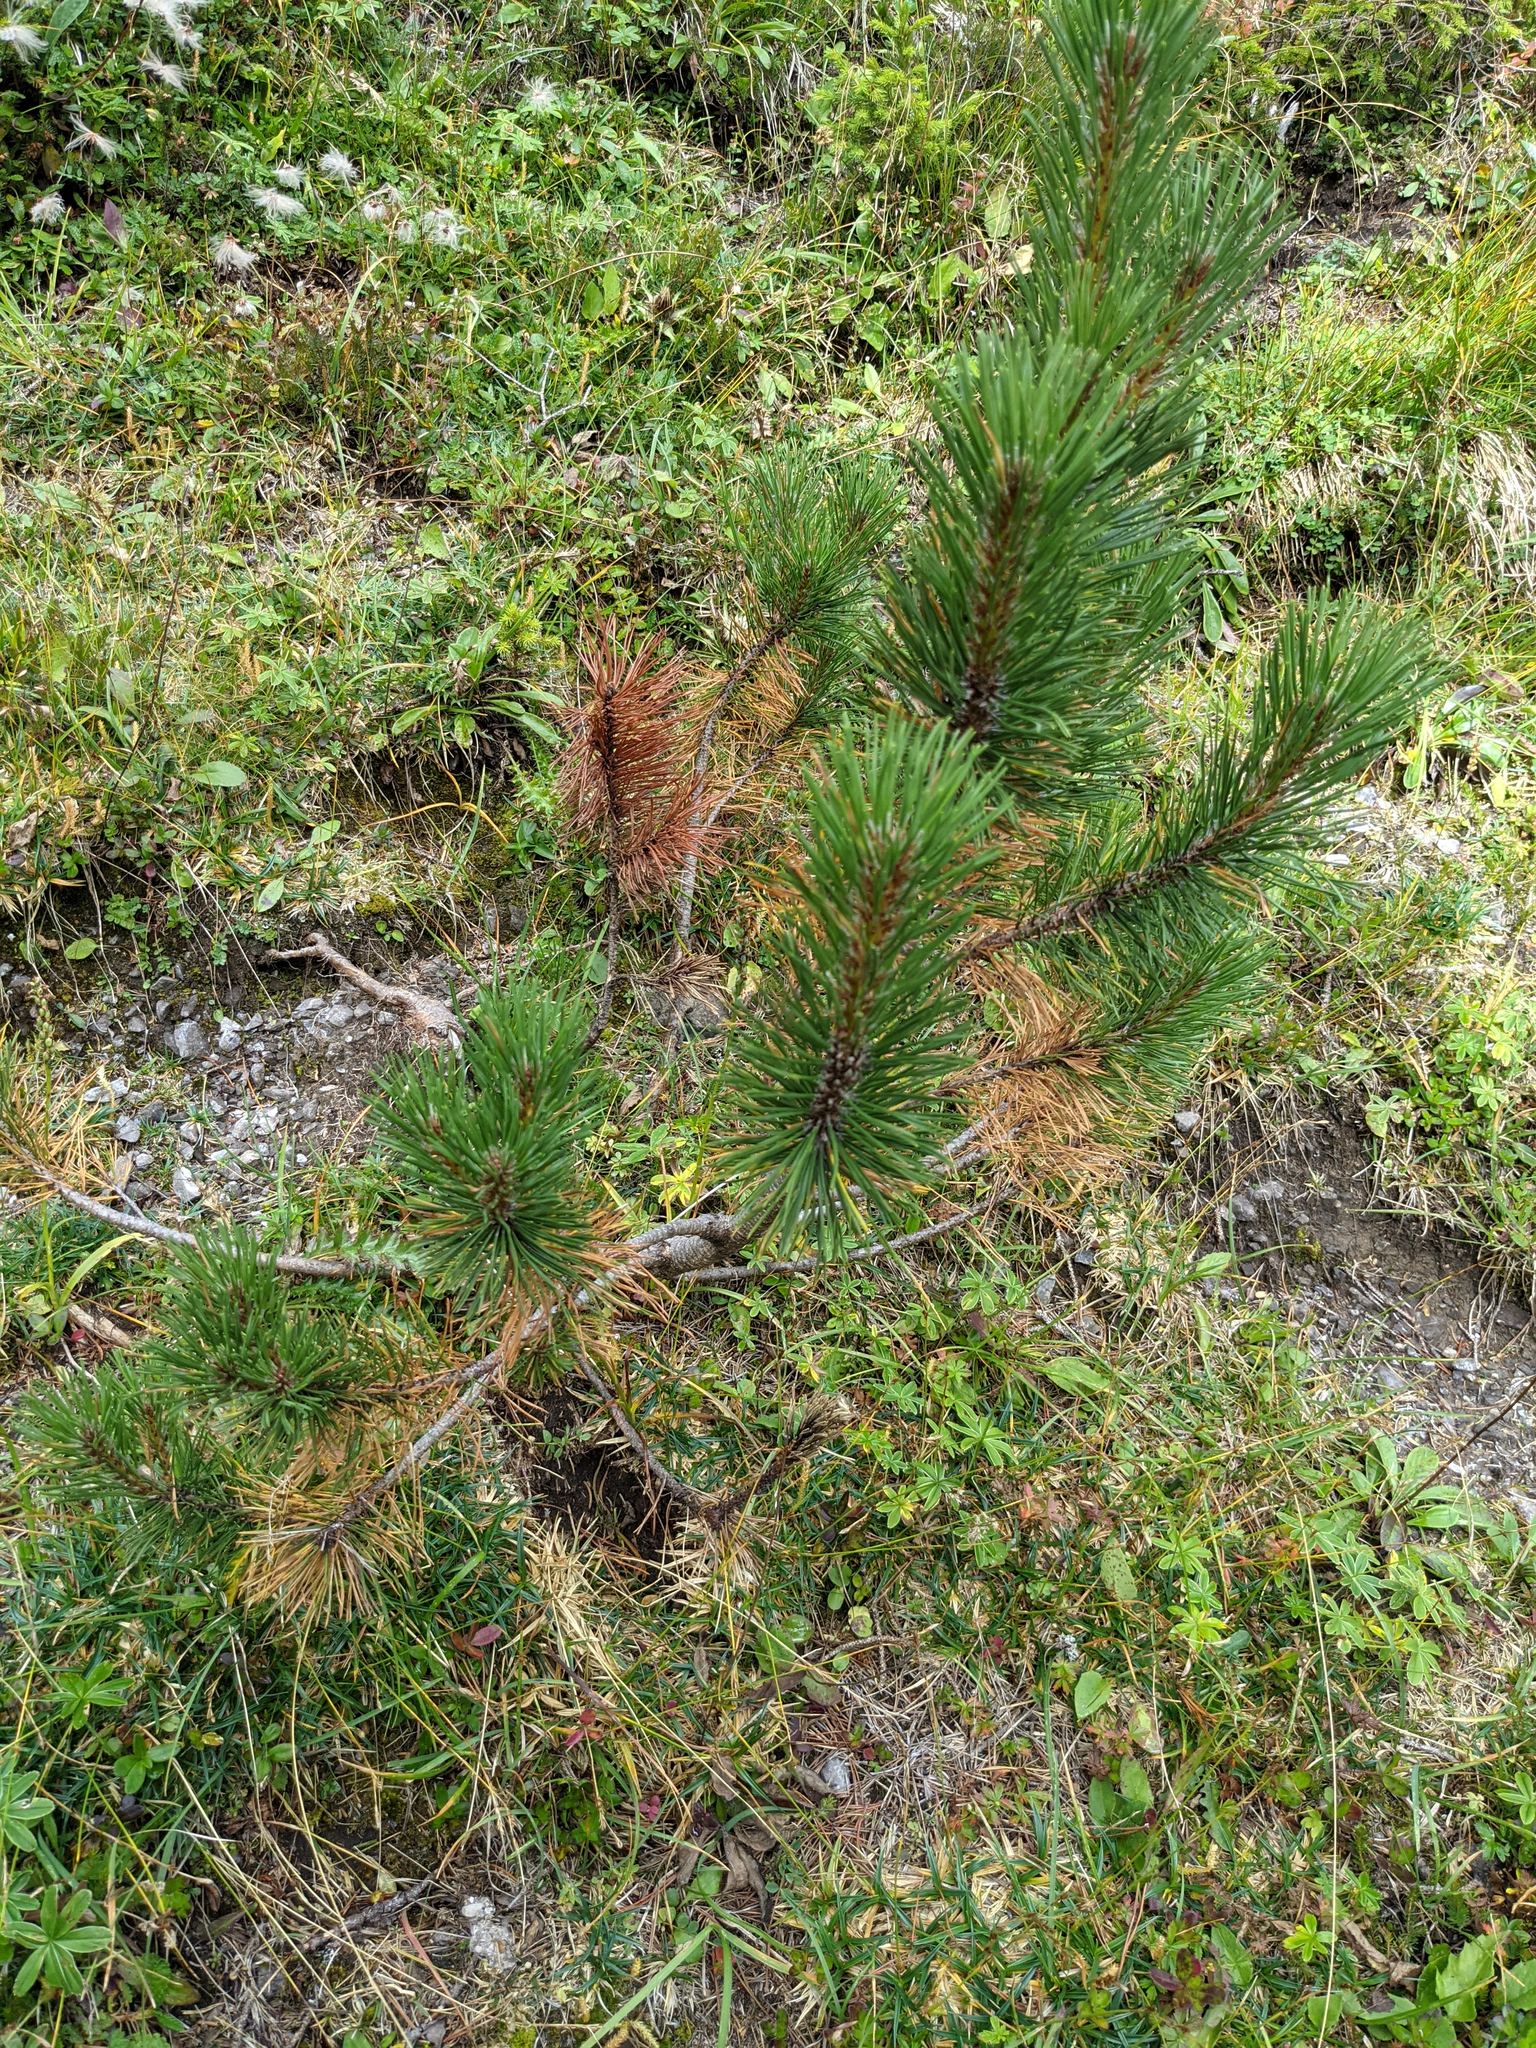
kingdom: Plantae
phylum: Tracheophyta
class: Pinopsida
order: Pinales
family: Pinaceae
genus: Pinus
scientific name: Pinus mugo
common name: Mugo pine
